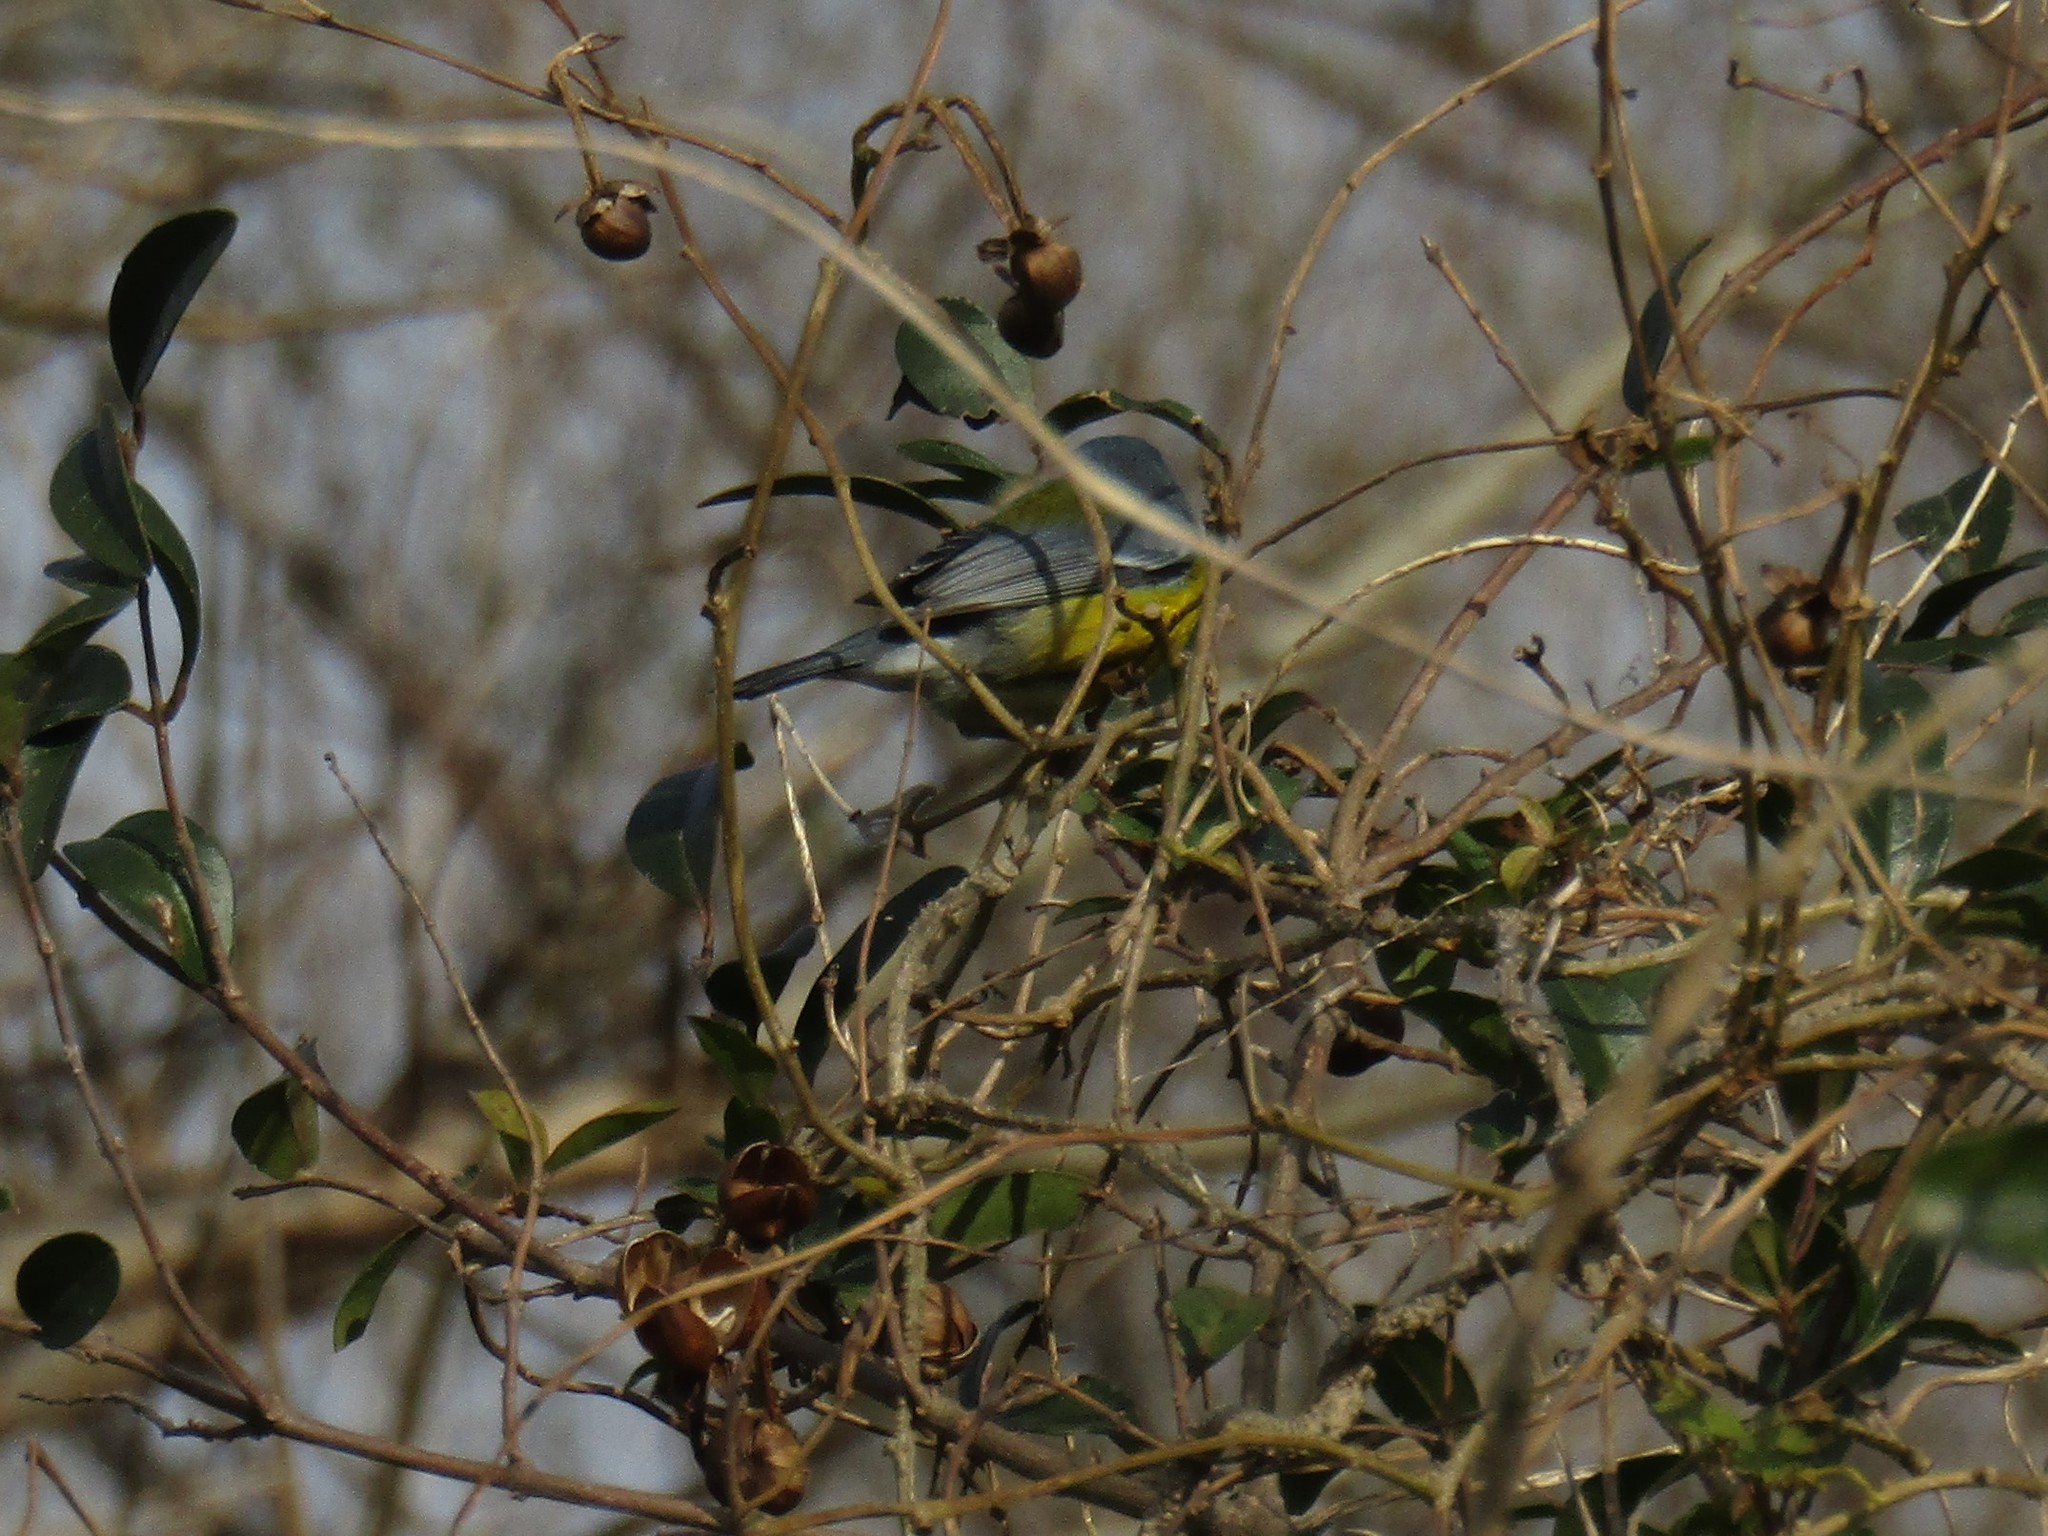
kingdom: Animalia
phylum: Chordata
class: Aves
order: Passeriformes
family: Parulidae
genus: Setophaga
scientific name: Setophaga pitiayumi
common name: Tropical parula
